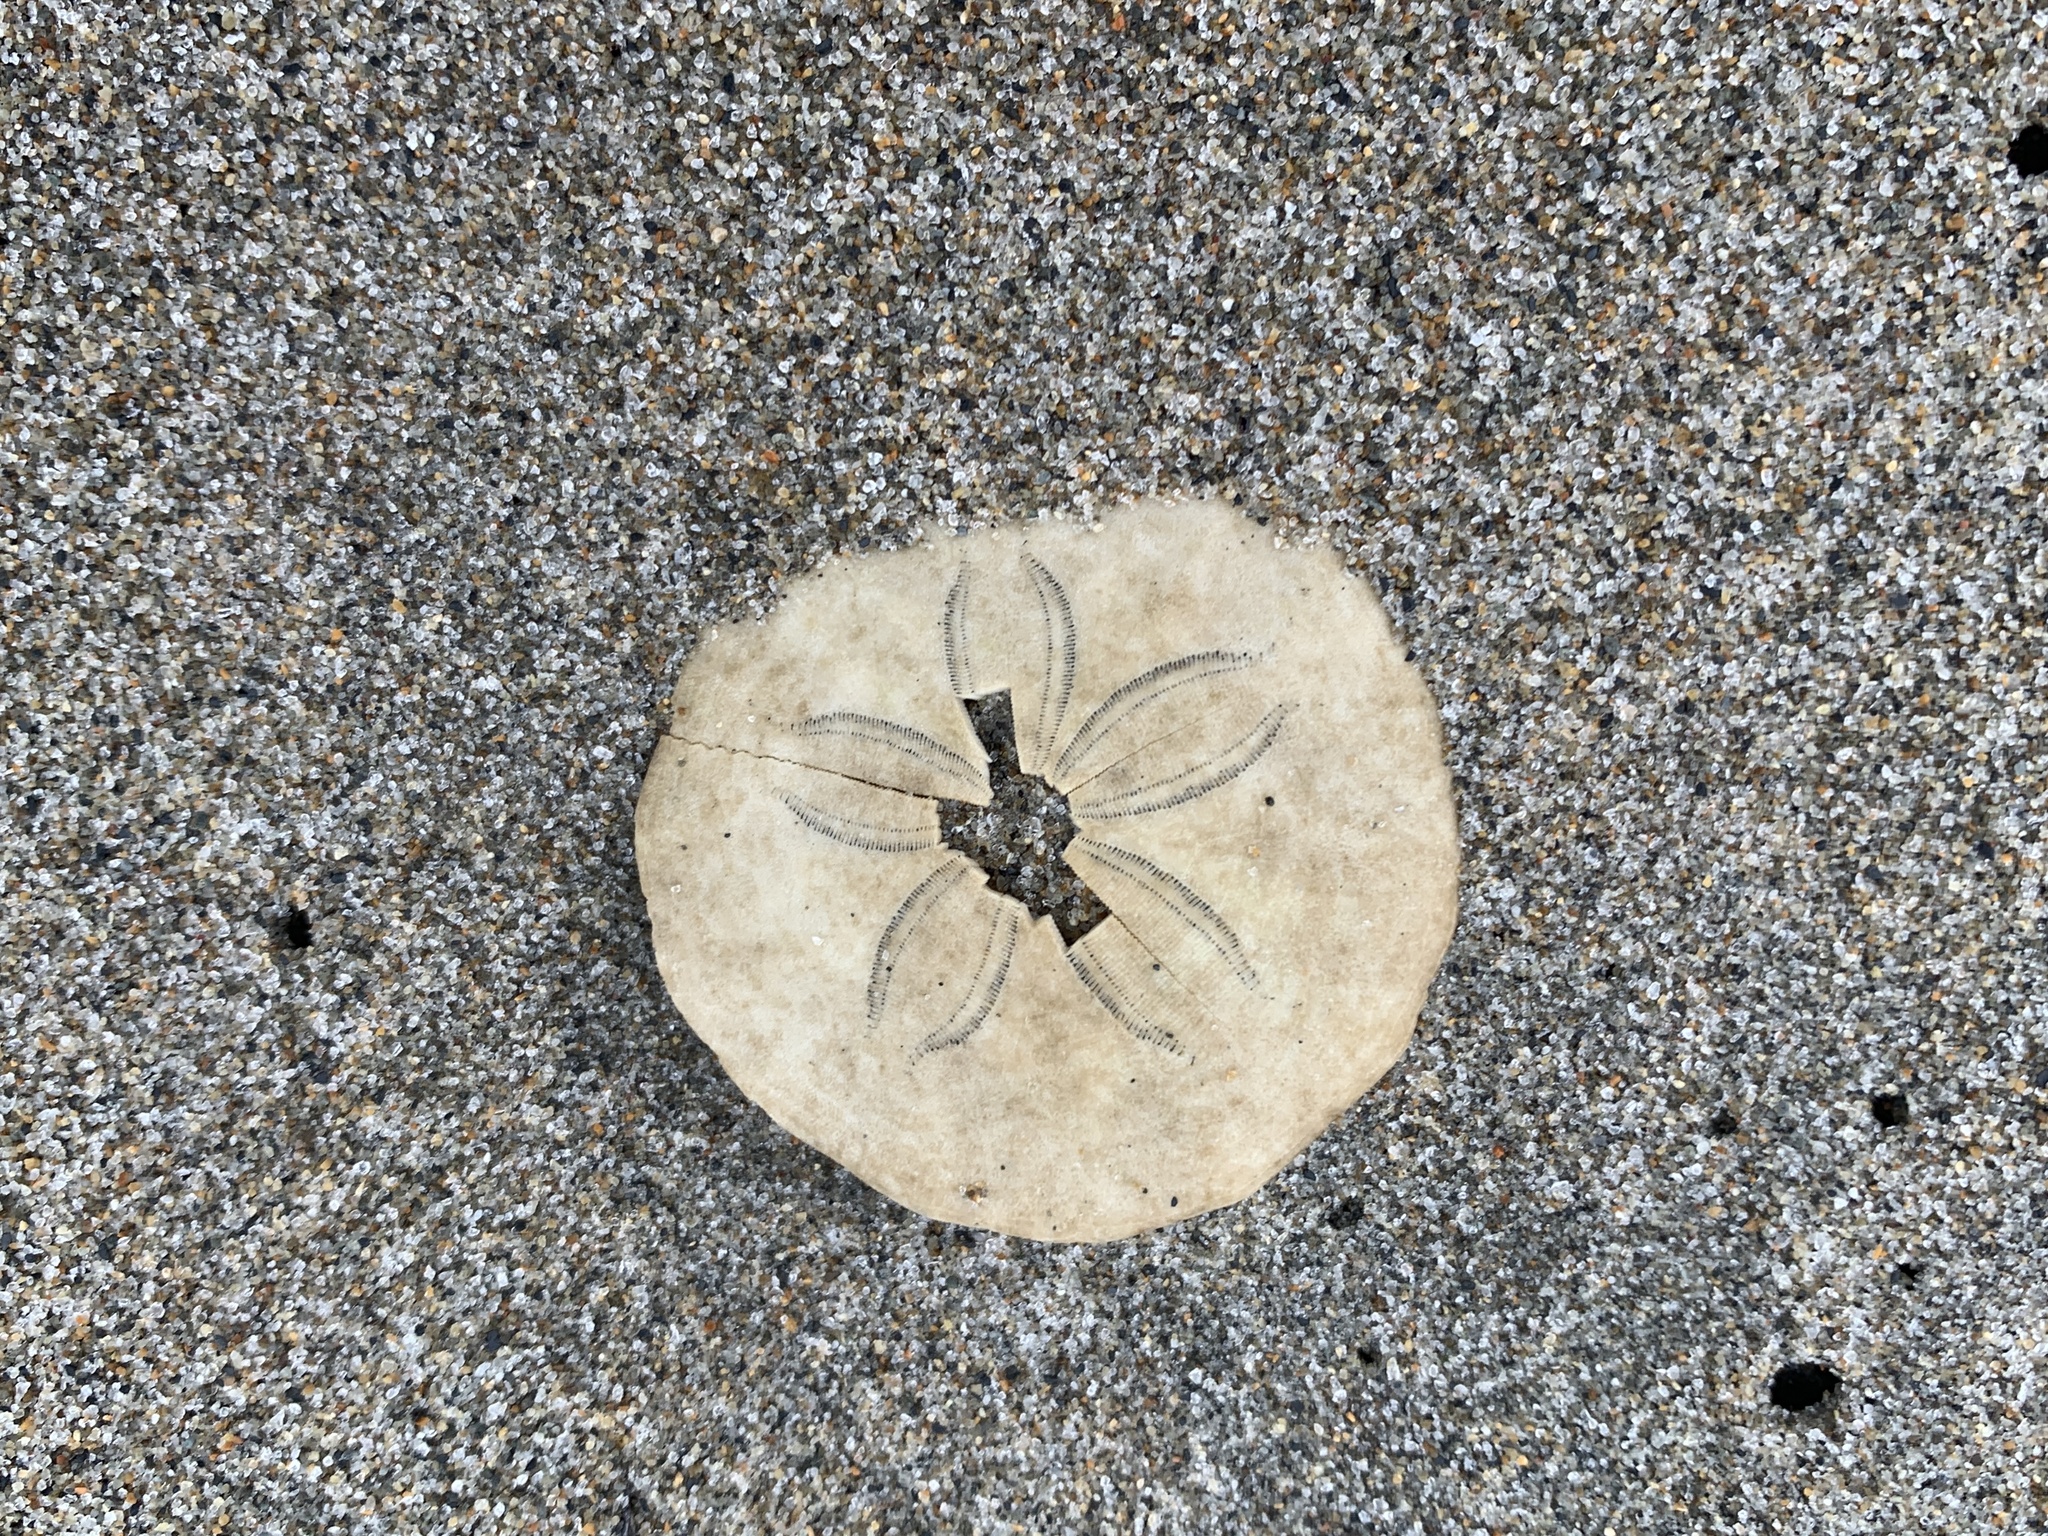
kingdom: Animalia
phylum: Echinodermata
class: Echinoidea
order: Echinolampadacea
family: Echinarachniidae
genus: Echinarachnius
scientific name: Echinarachnius parma
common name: Common sand dollar
